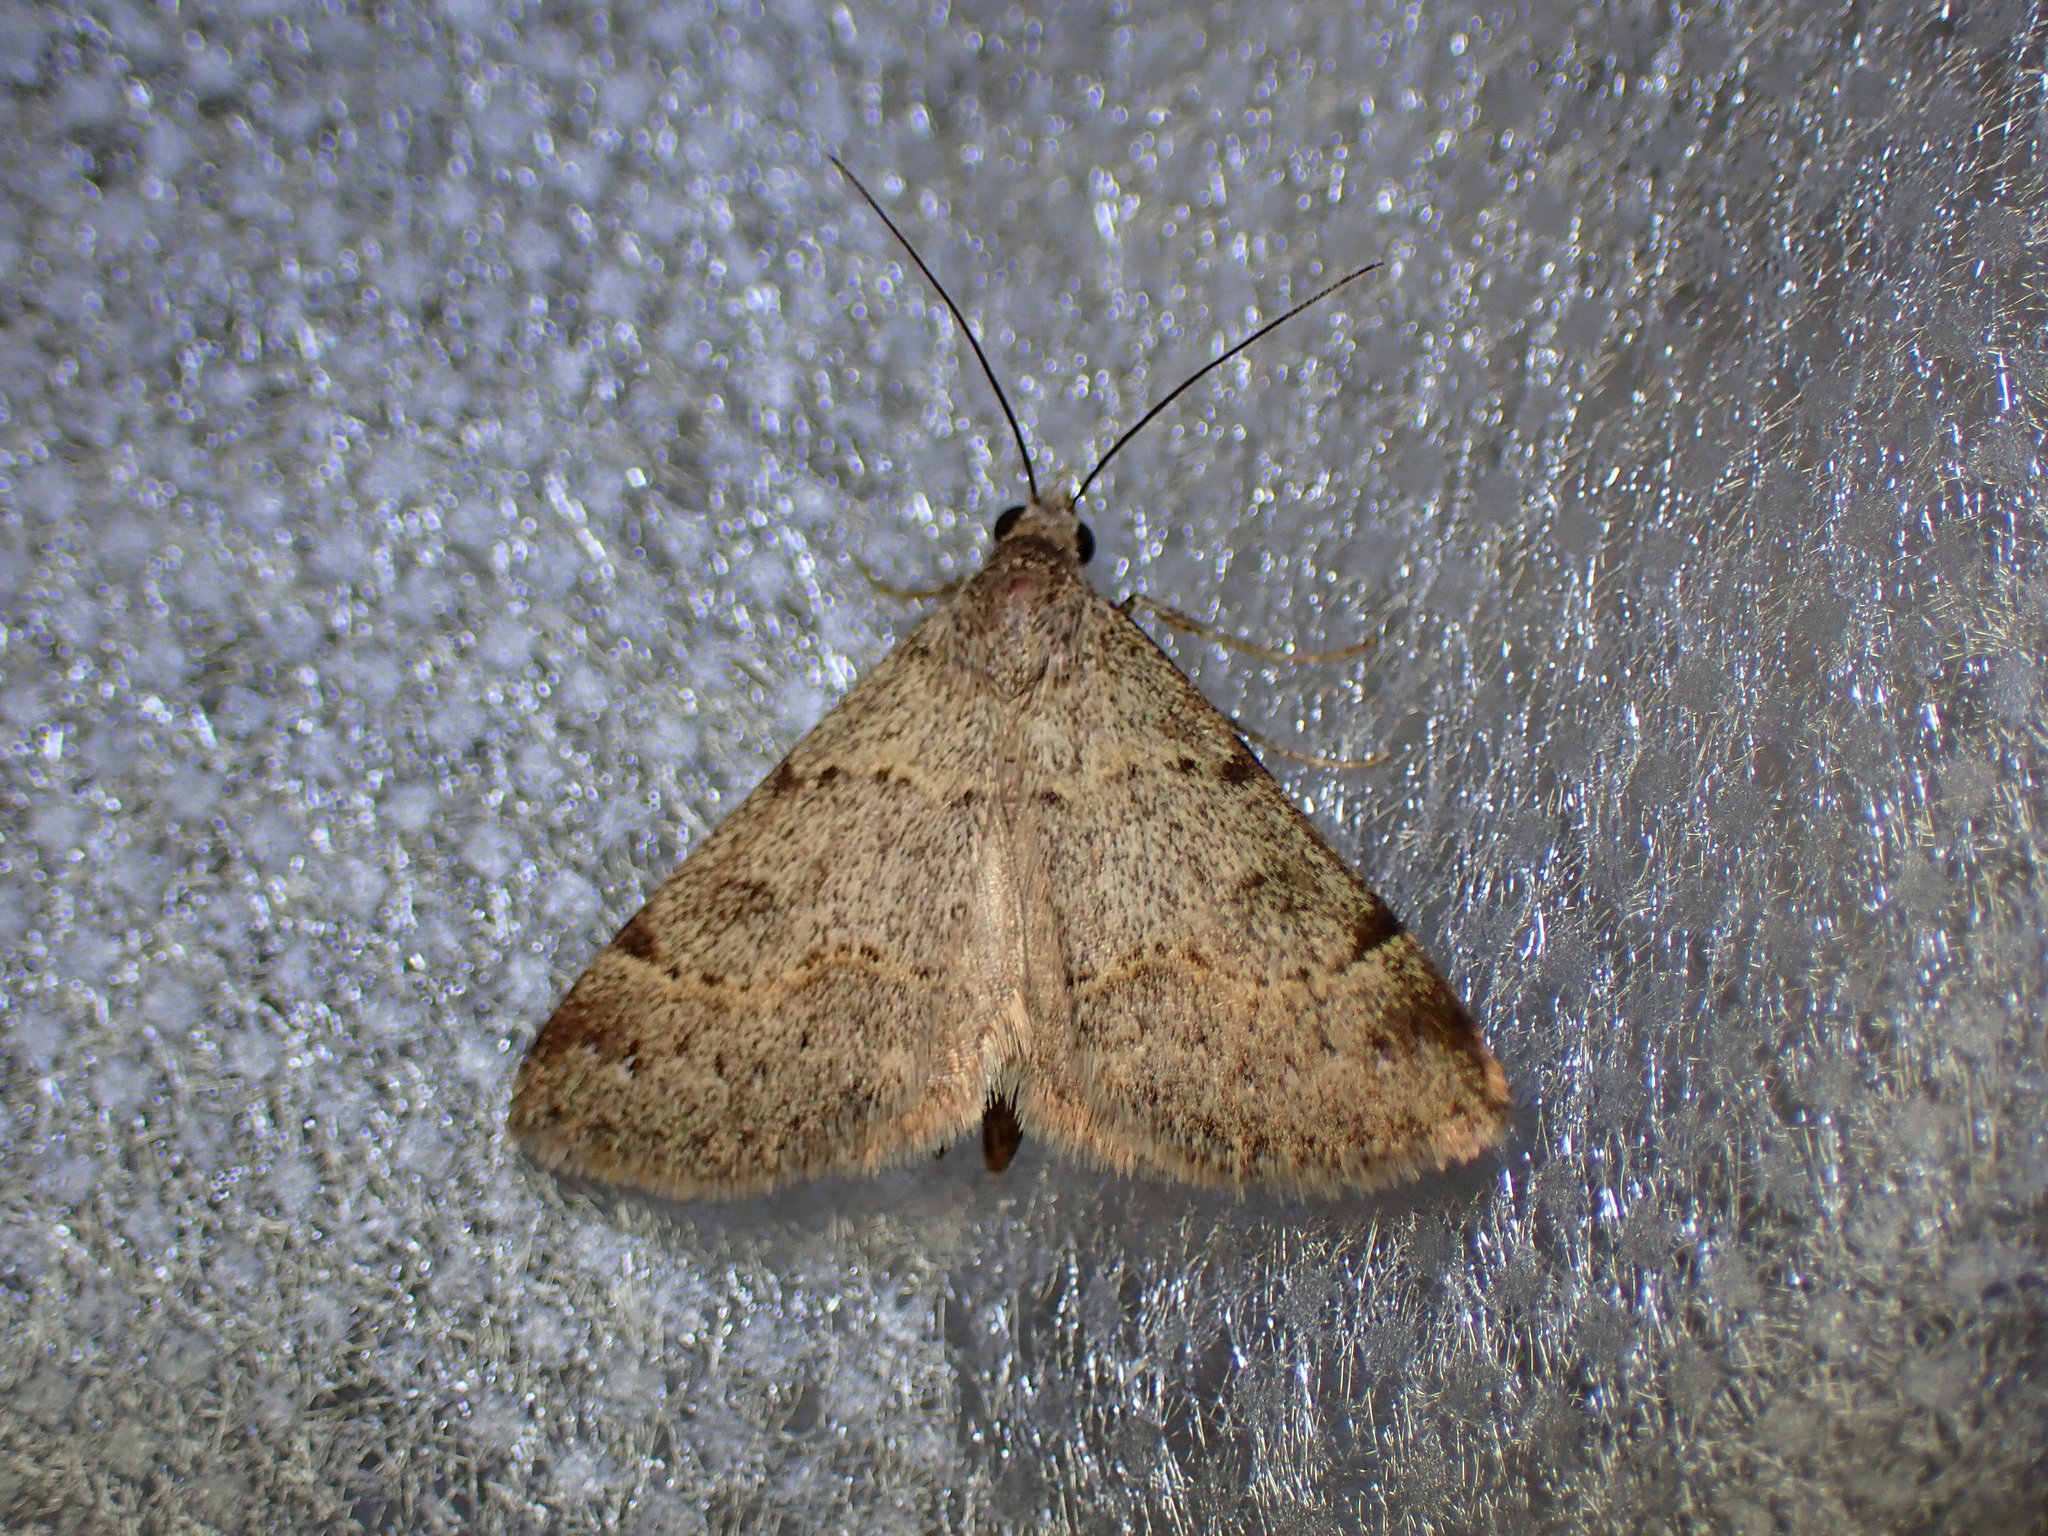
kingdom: Animalia
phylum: Arthropoda
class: Insecta
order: Lepidoptera
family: Erebidae
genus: Hemeroplanis
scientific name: Hemeroplanis historialis
